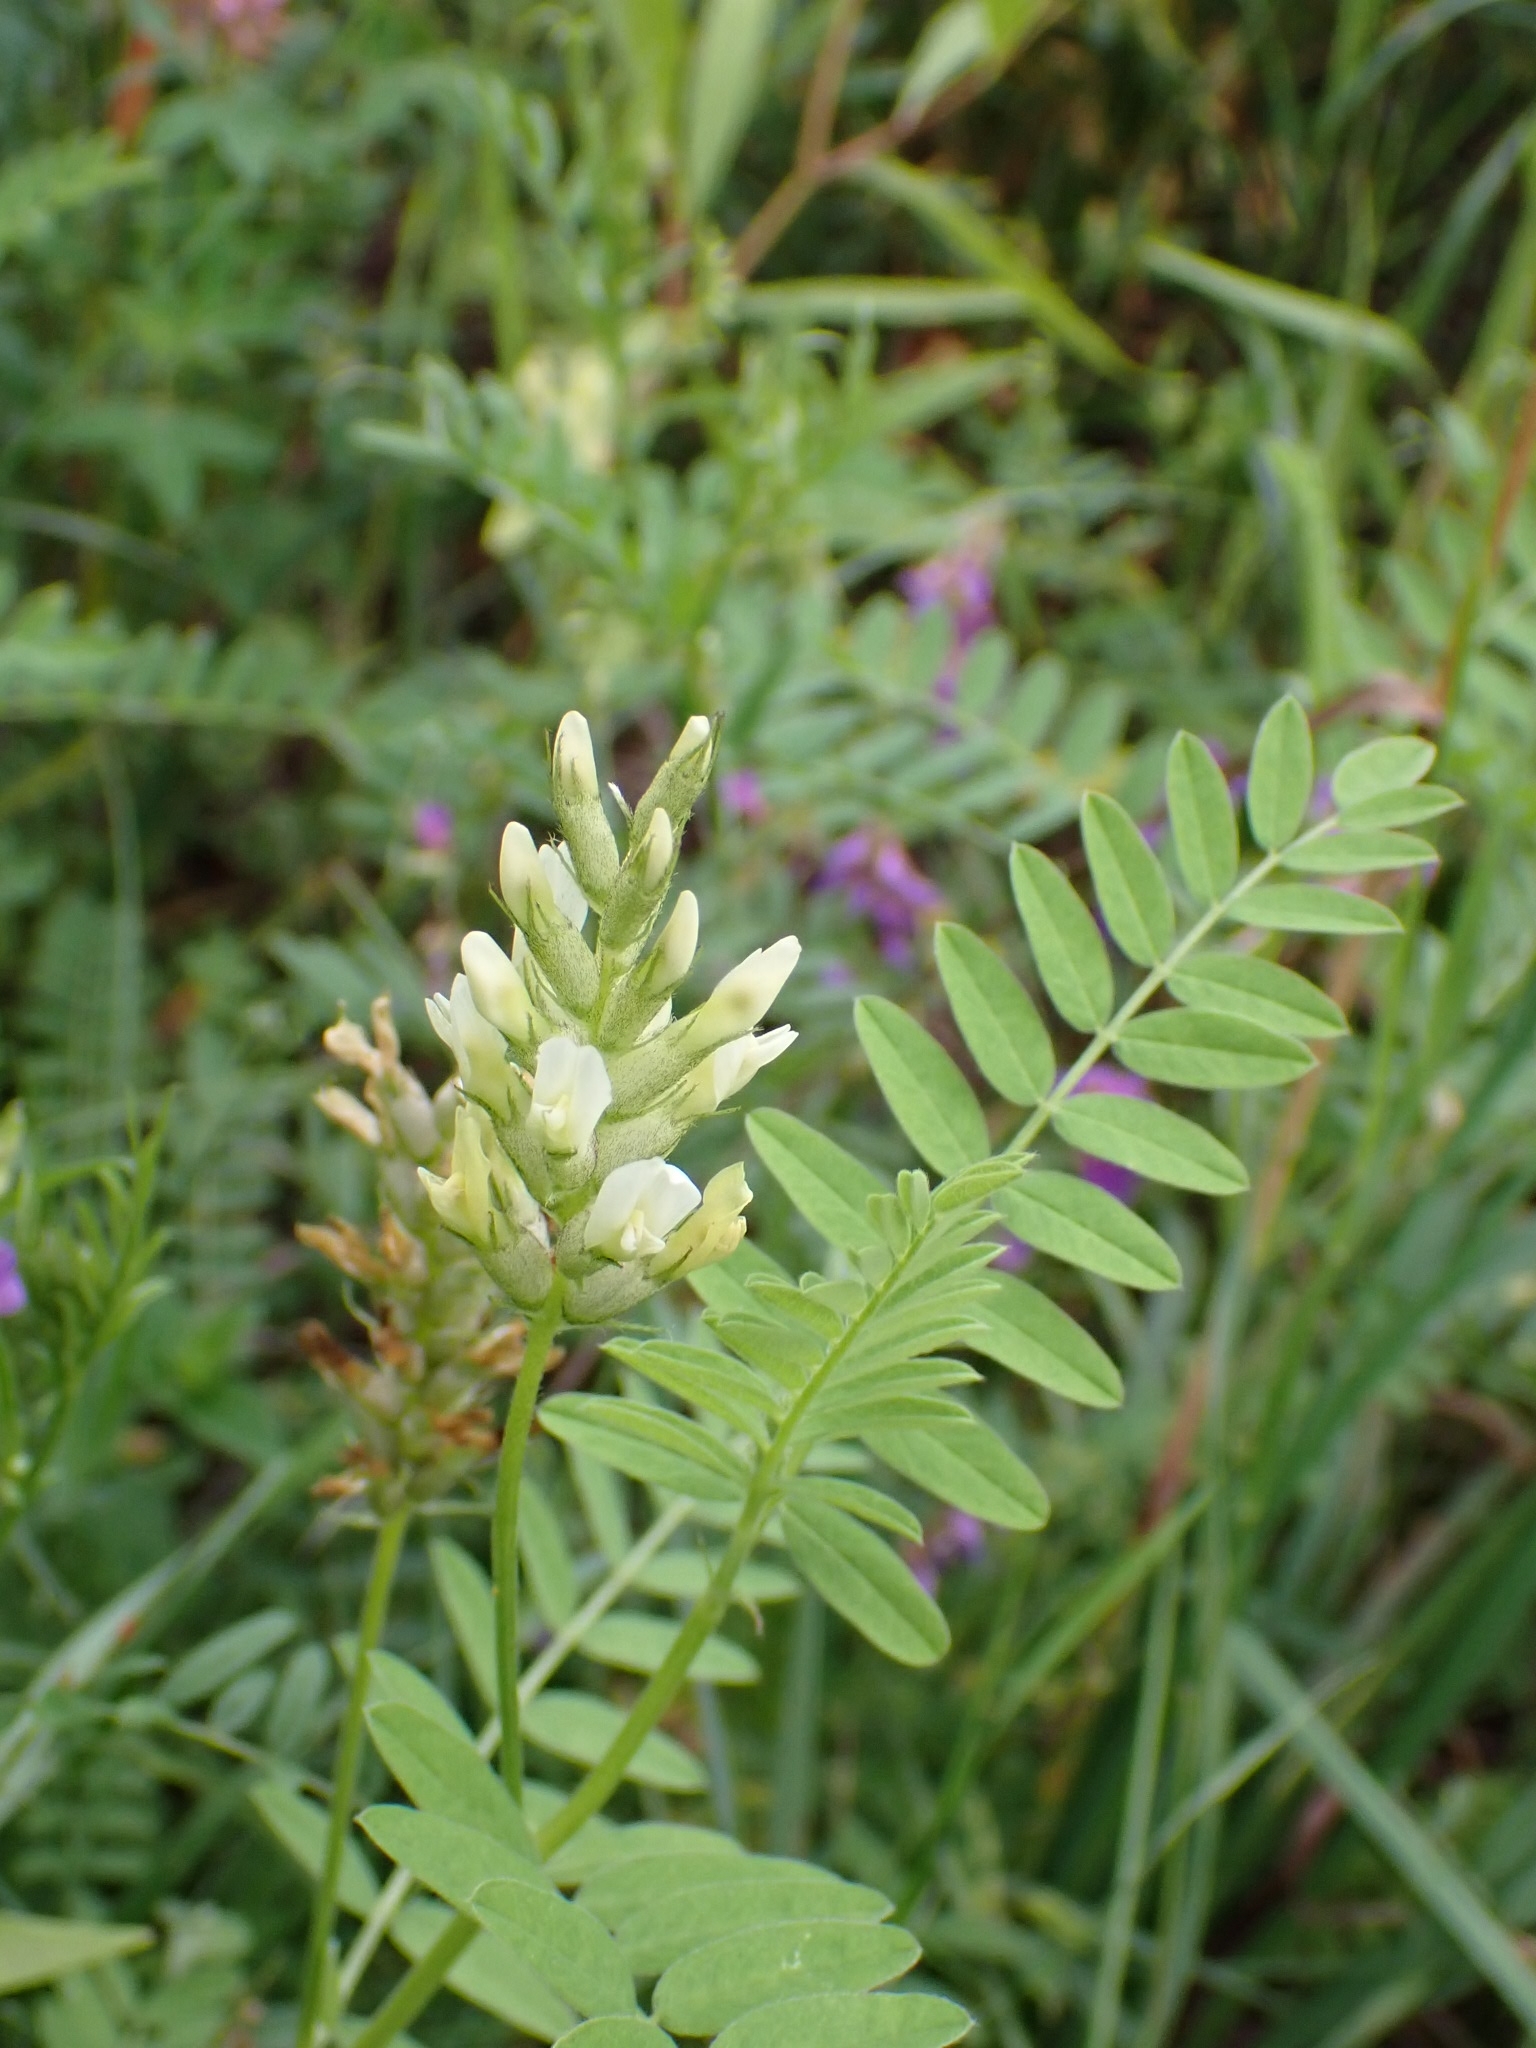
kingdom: Plantae
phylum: Tracheophyta
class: Magnoliopsida
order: Fabales
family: Fabaceae
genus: Astragalus
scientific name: Astragalus cicer
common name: Chick-pea milk-vetch
